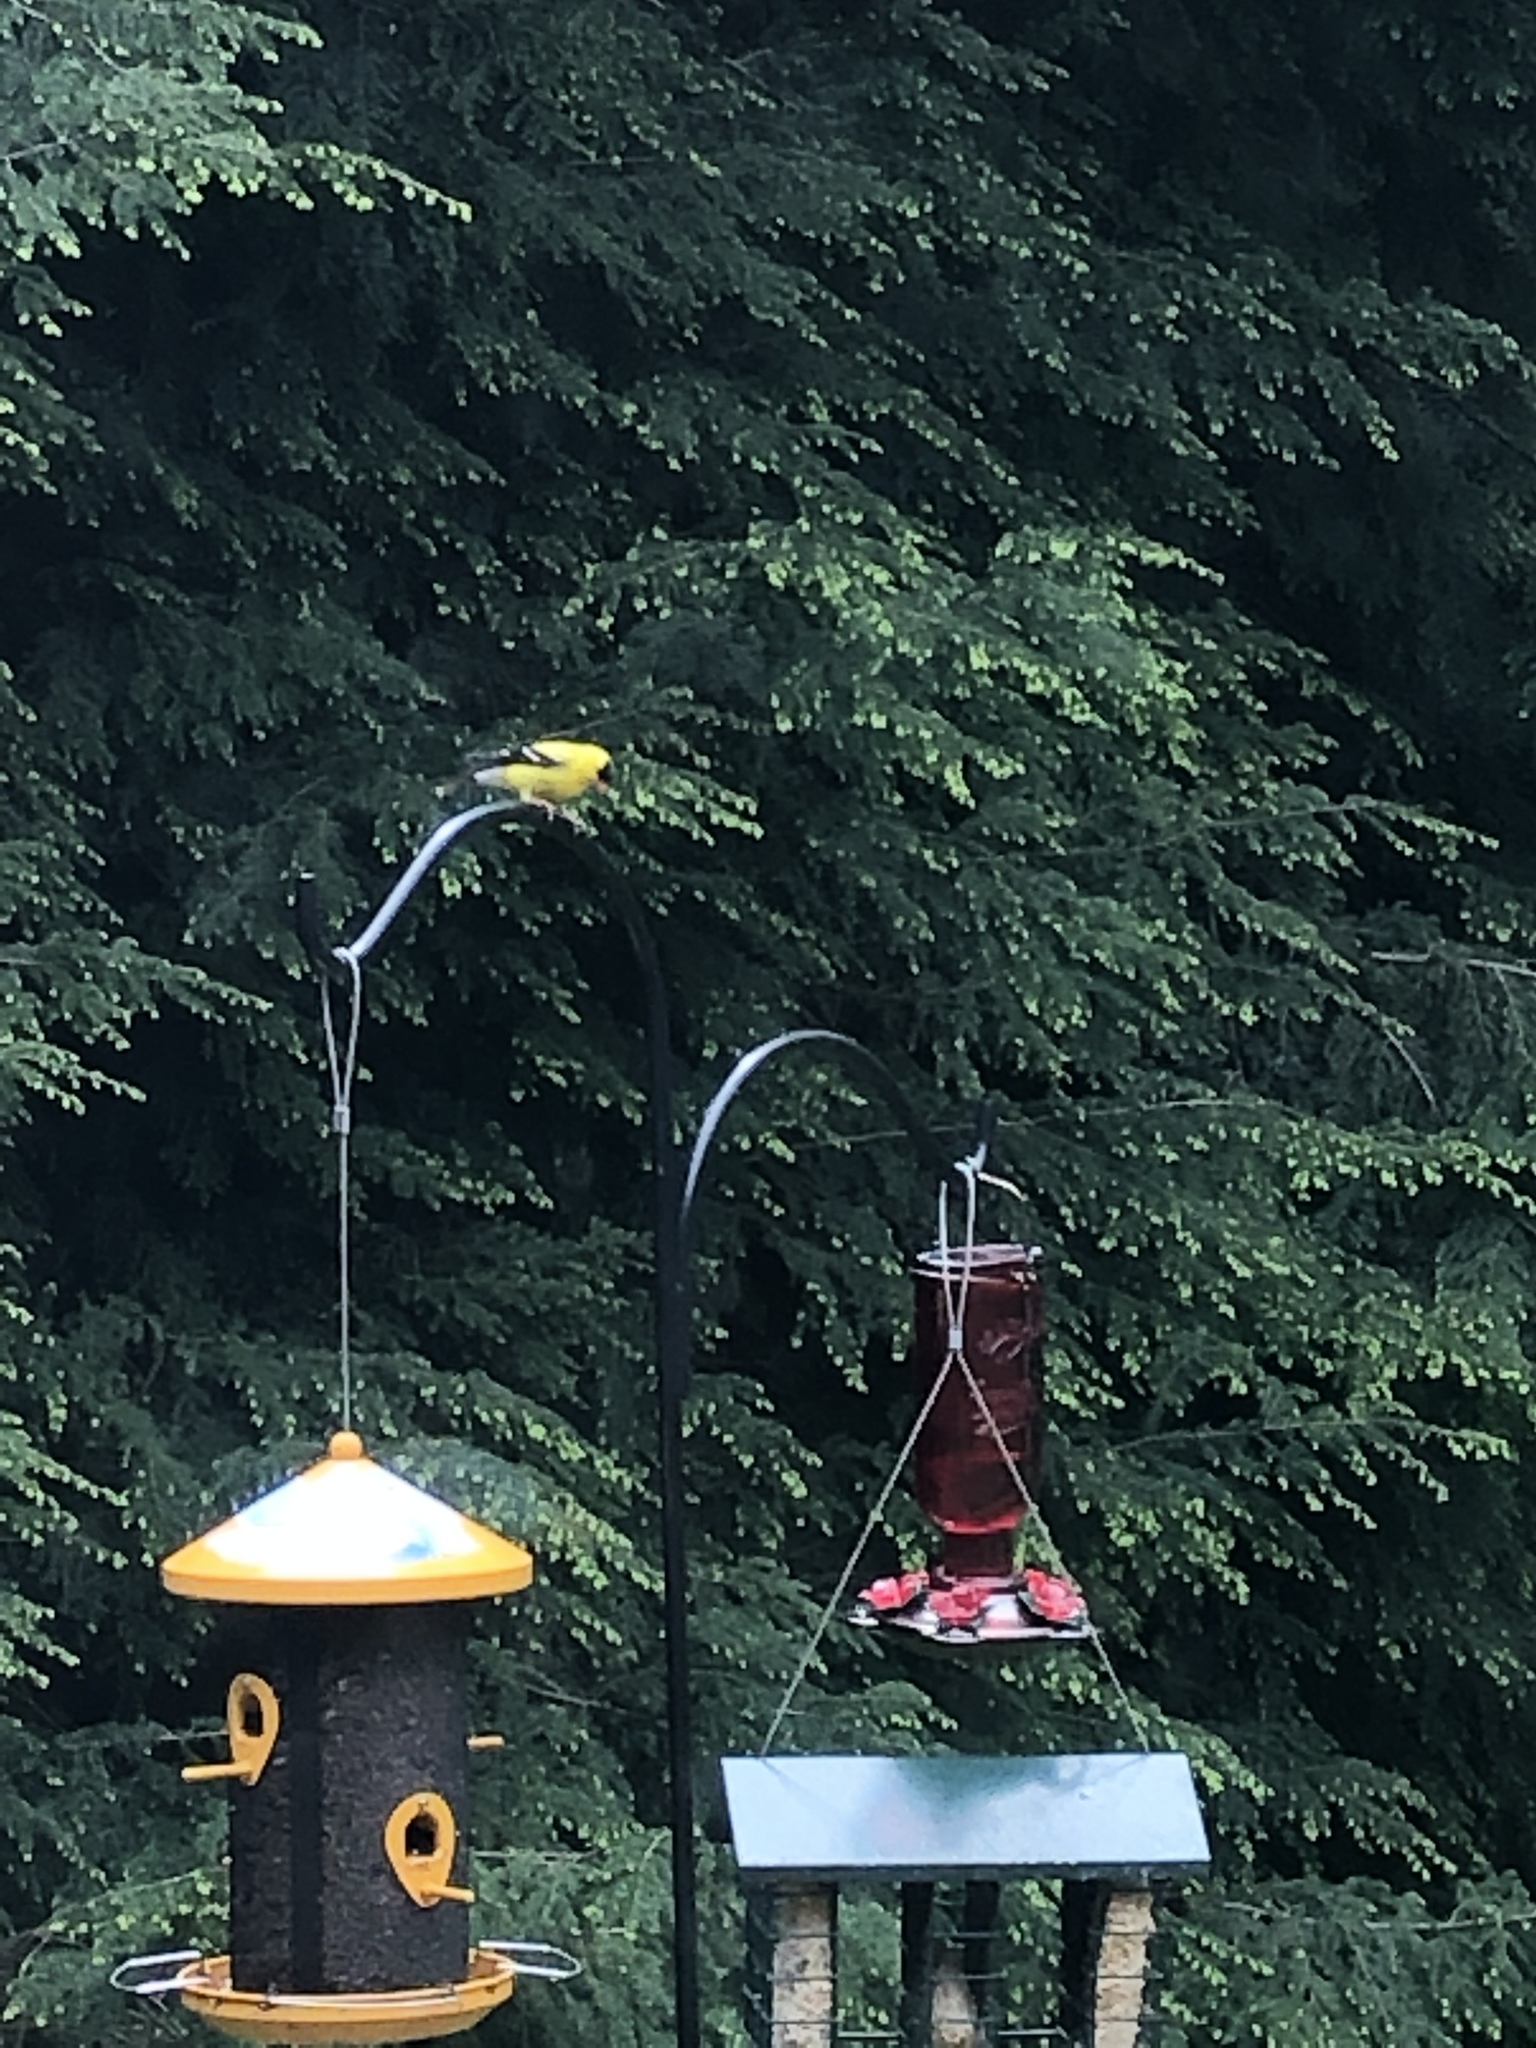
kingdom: Animalia
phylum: Chordata
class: Aves
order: Passeriformes
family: Fringillidae
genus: Spinus
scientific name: Spinus tristis
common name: American goldfinch
